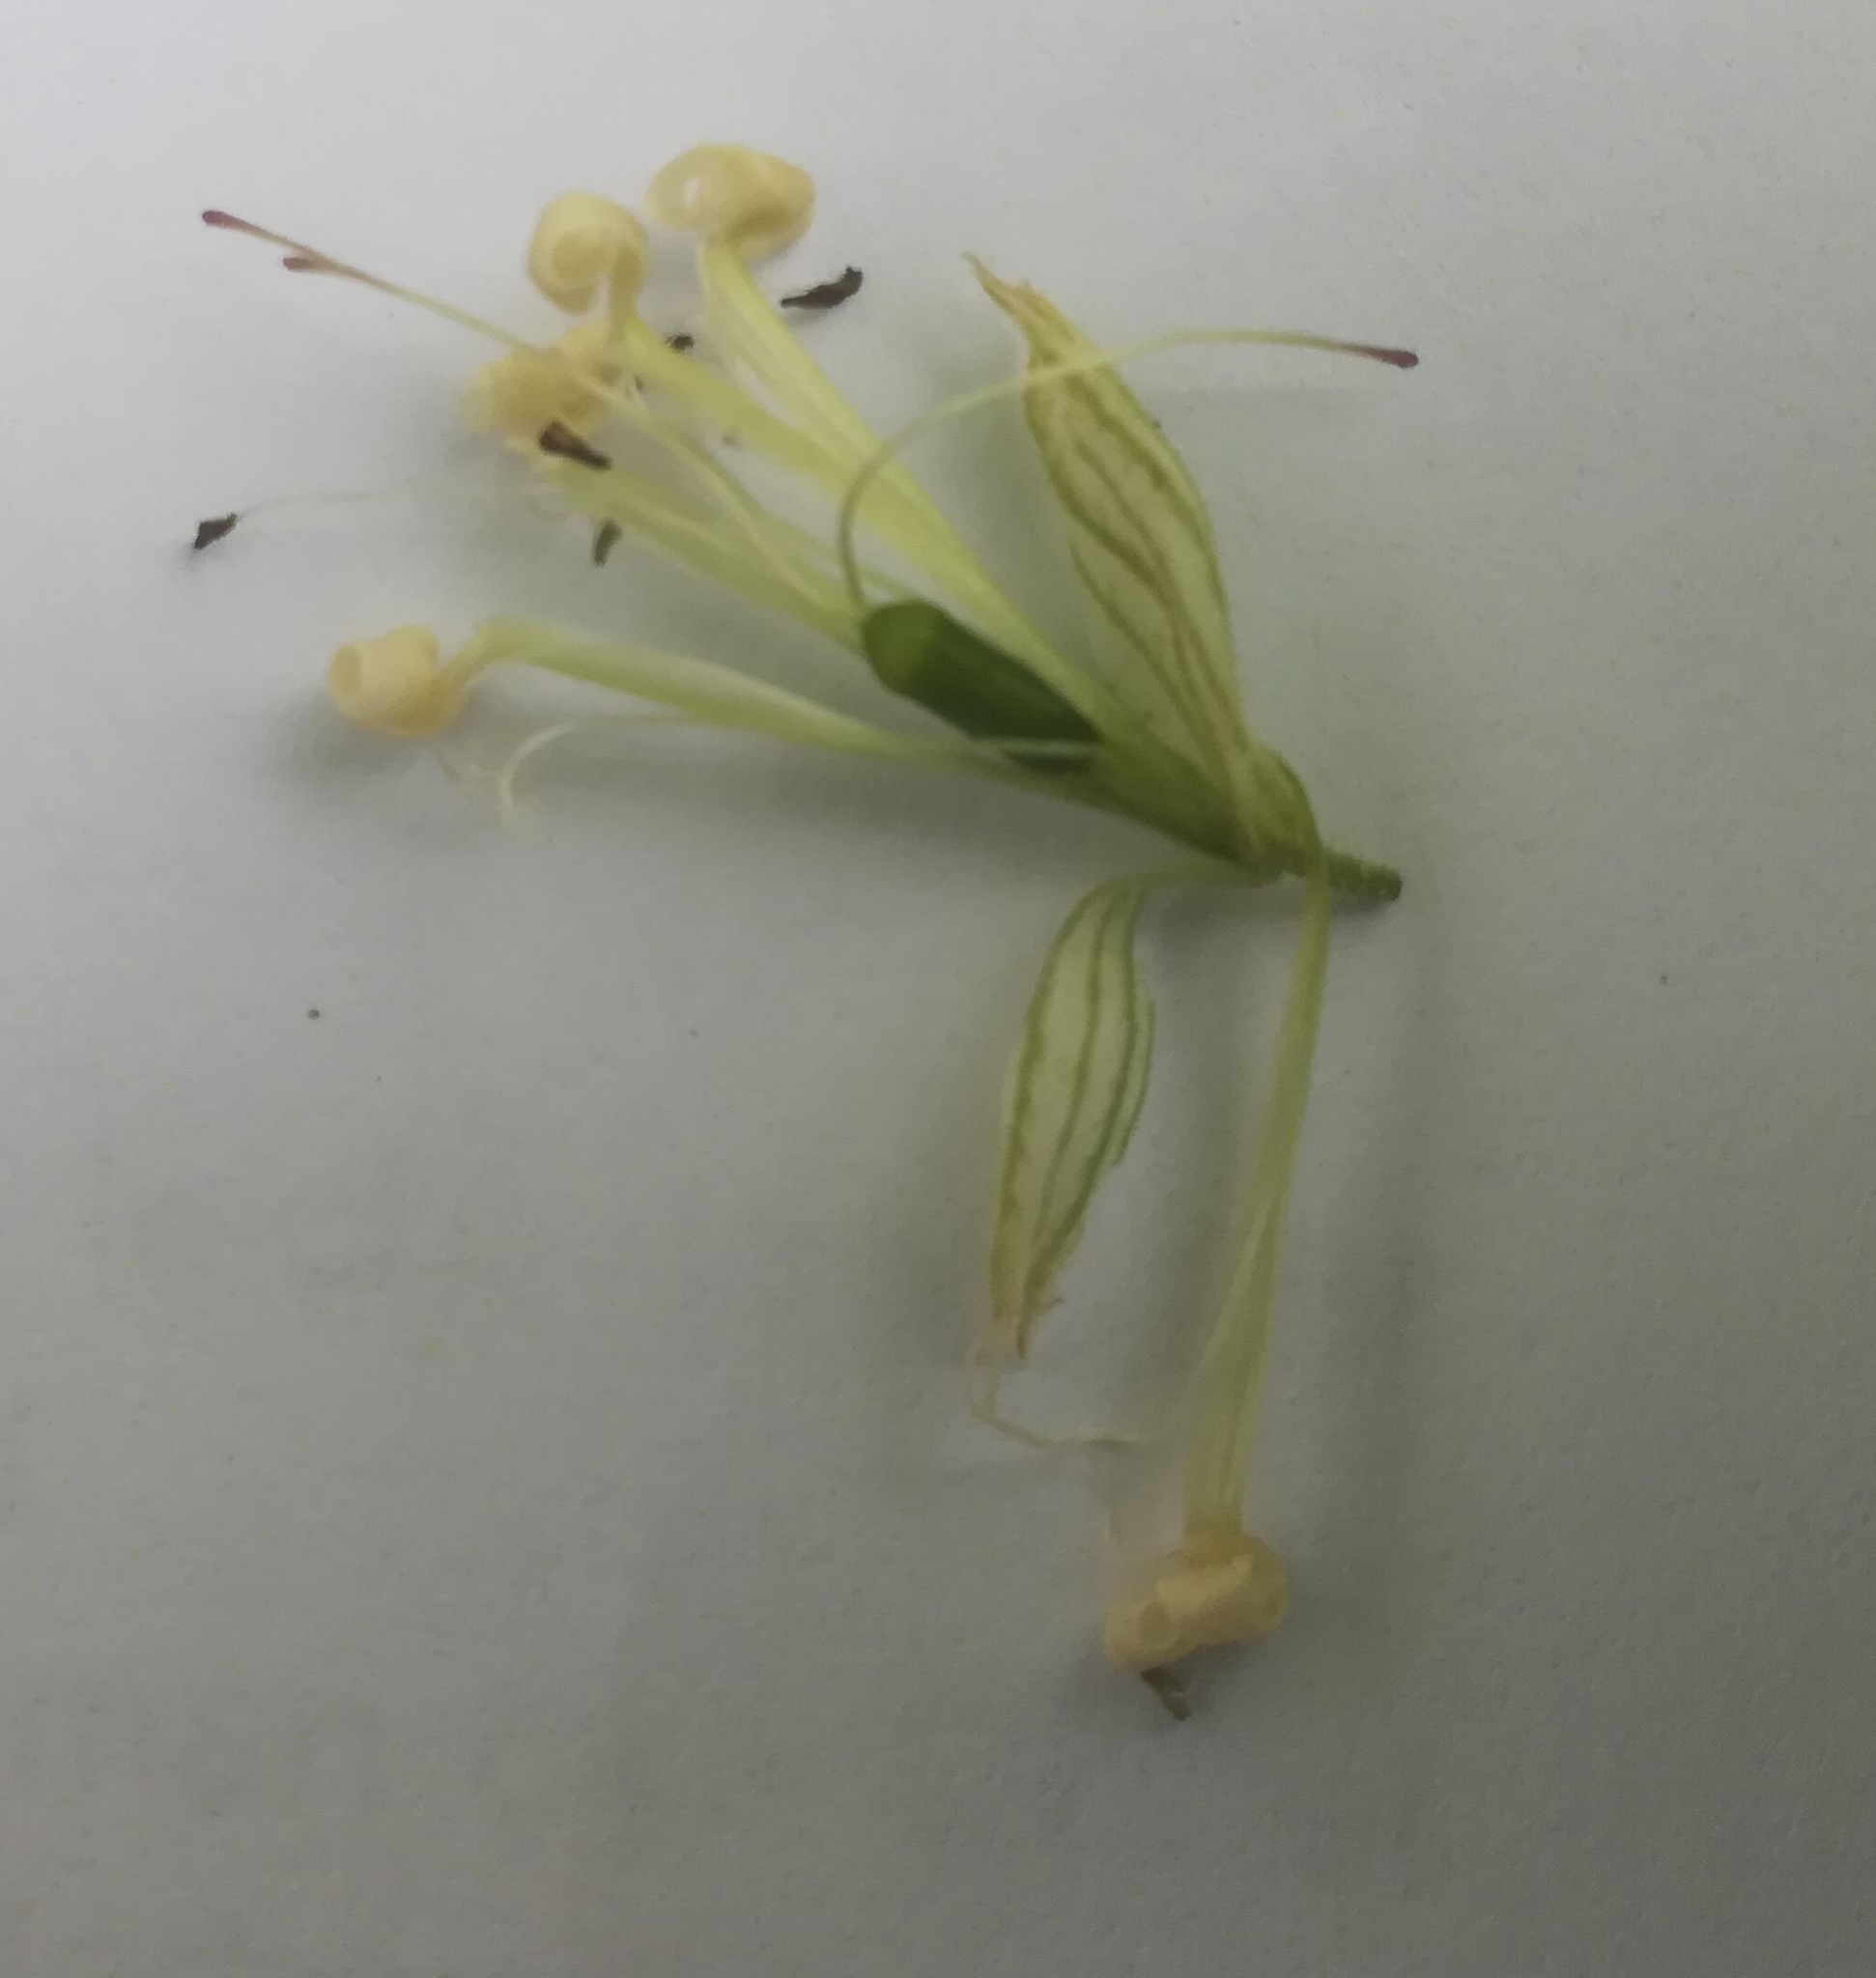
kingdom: Plantae
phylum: Tracheophyta
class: Magnoliopsida
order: Caryophyllales
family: Caryophyllaceae
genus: Silene
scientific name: Silene nutans
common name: Nottingham catchfly
